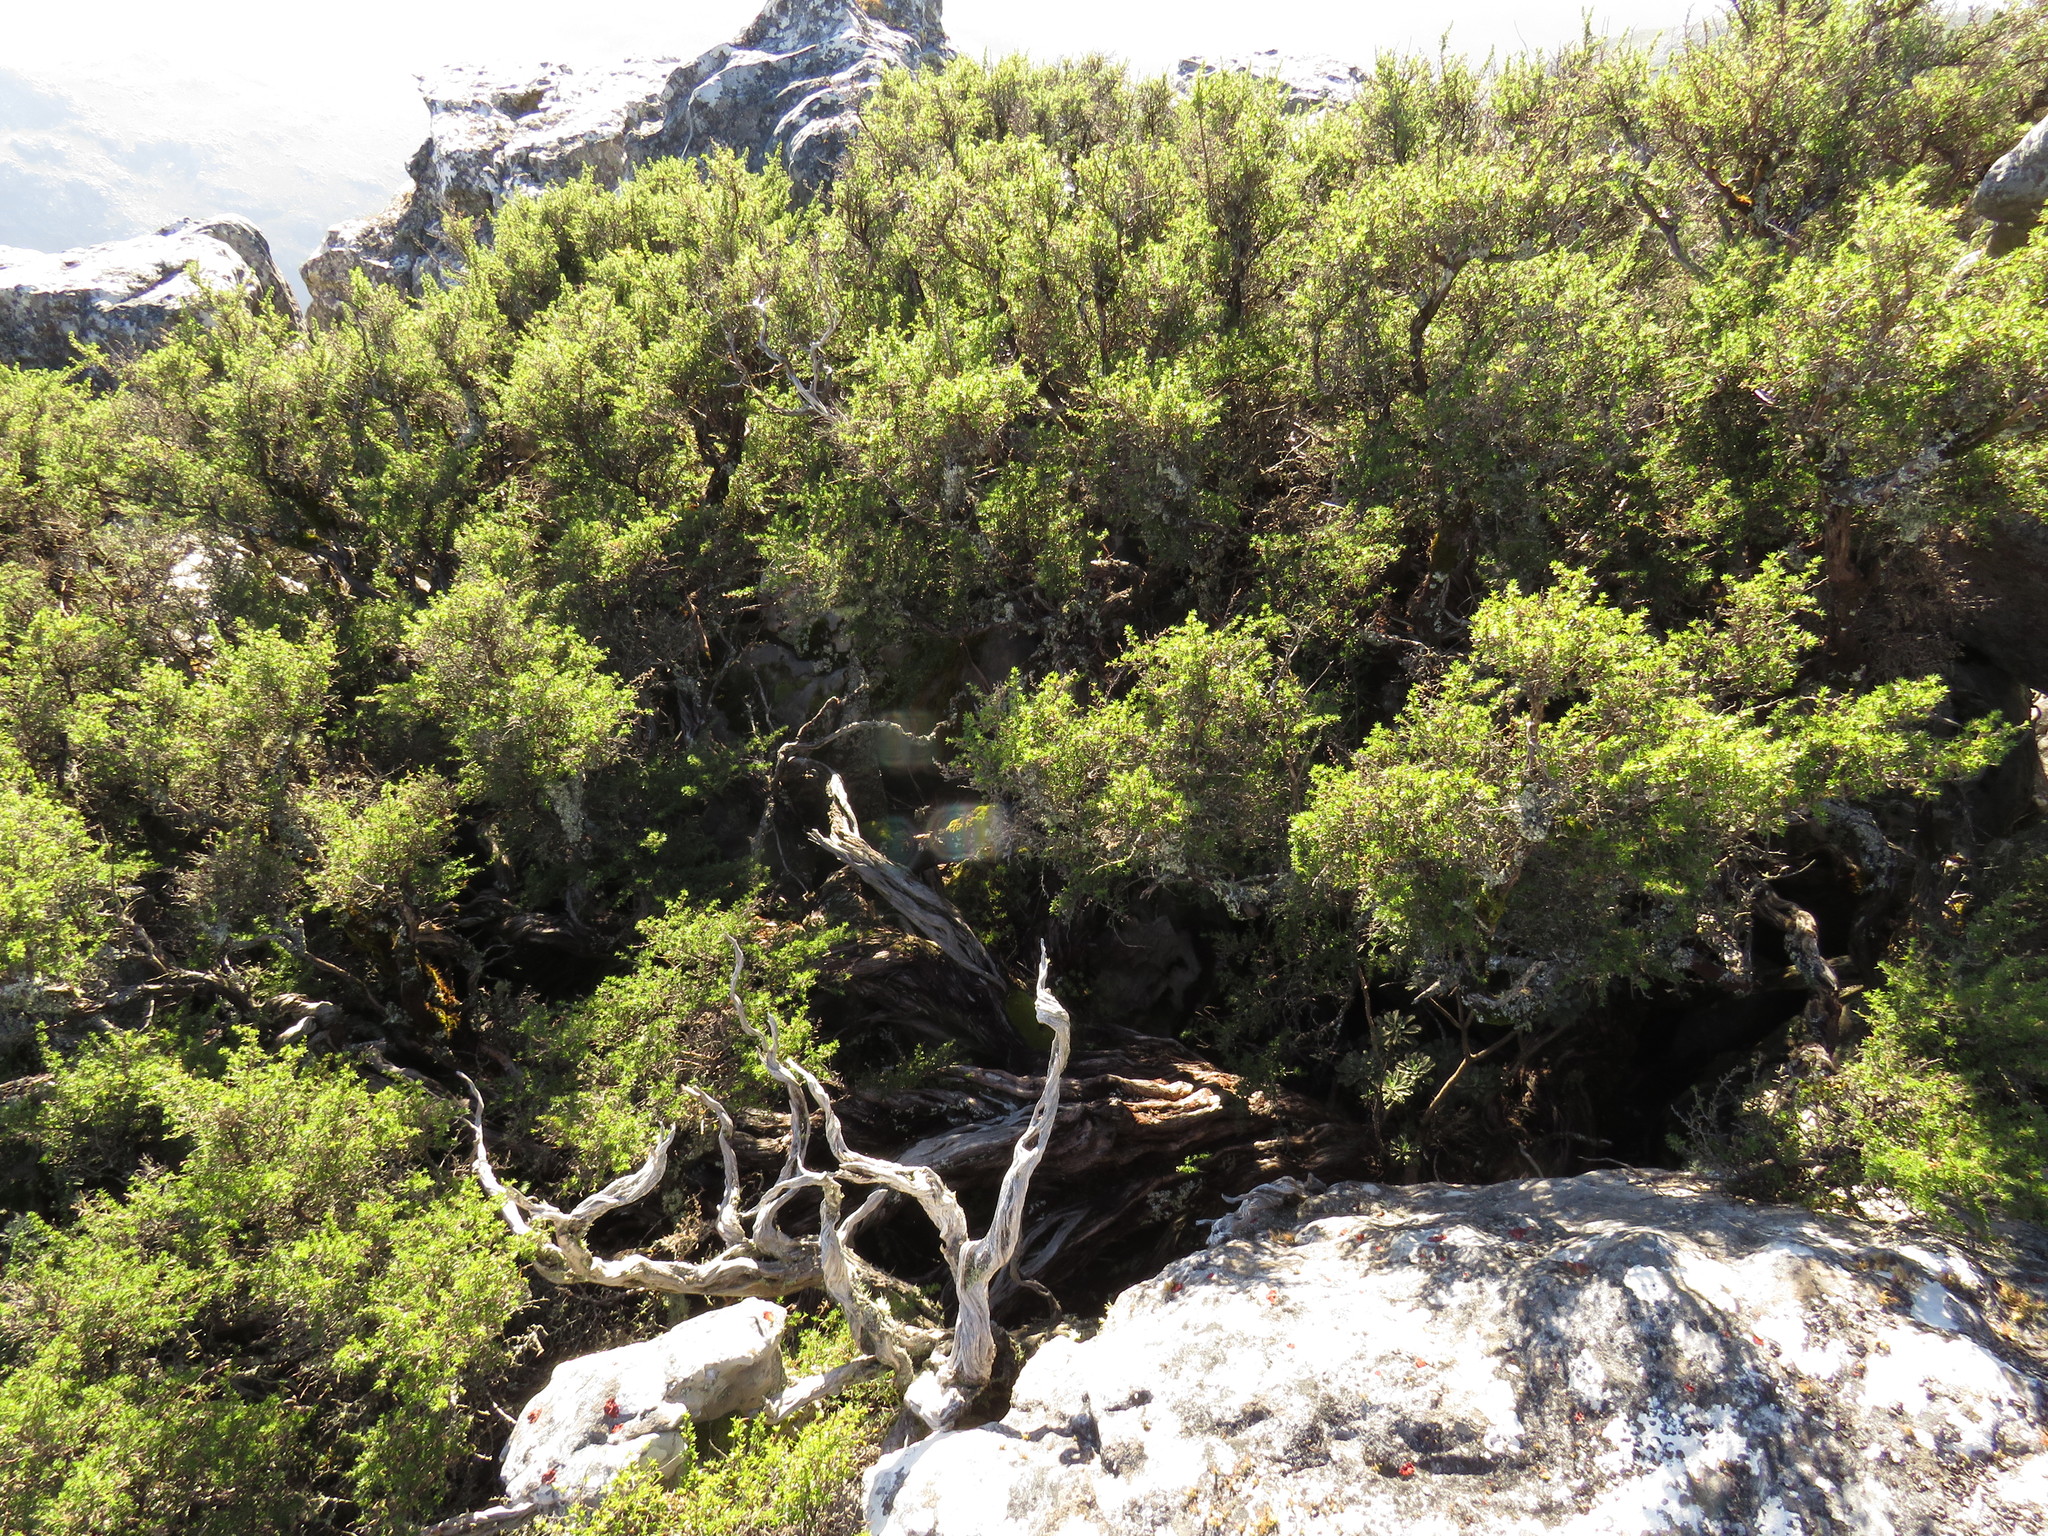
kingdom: Plantae
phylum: Tracheophyta
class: Magnoliopsida
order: Rosales
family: Rosaceae
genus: Cliffortia
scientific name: Cliffortia ruscifolia
